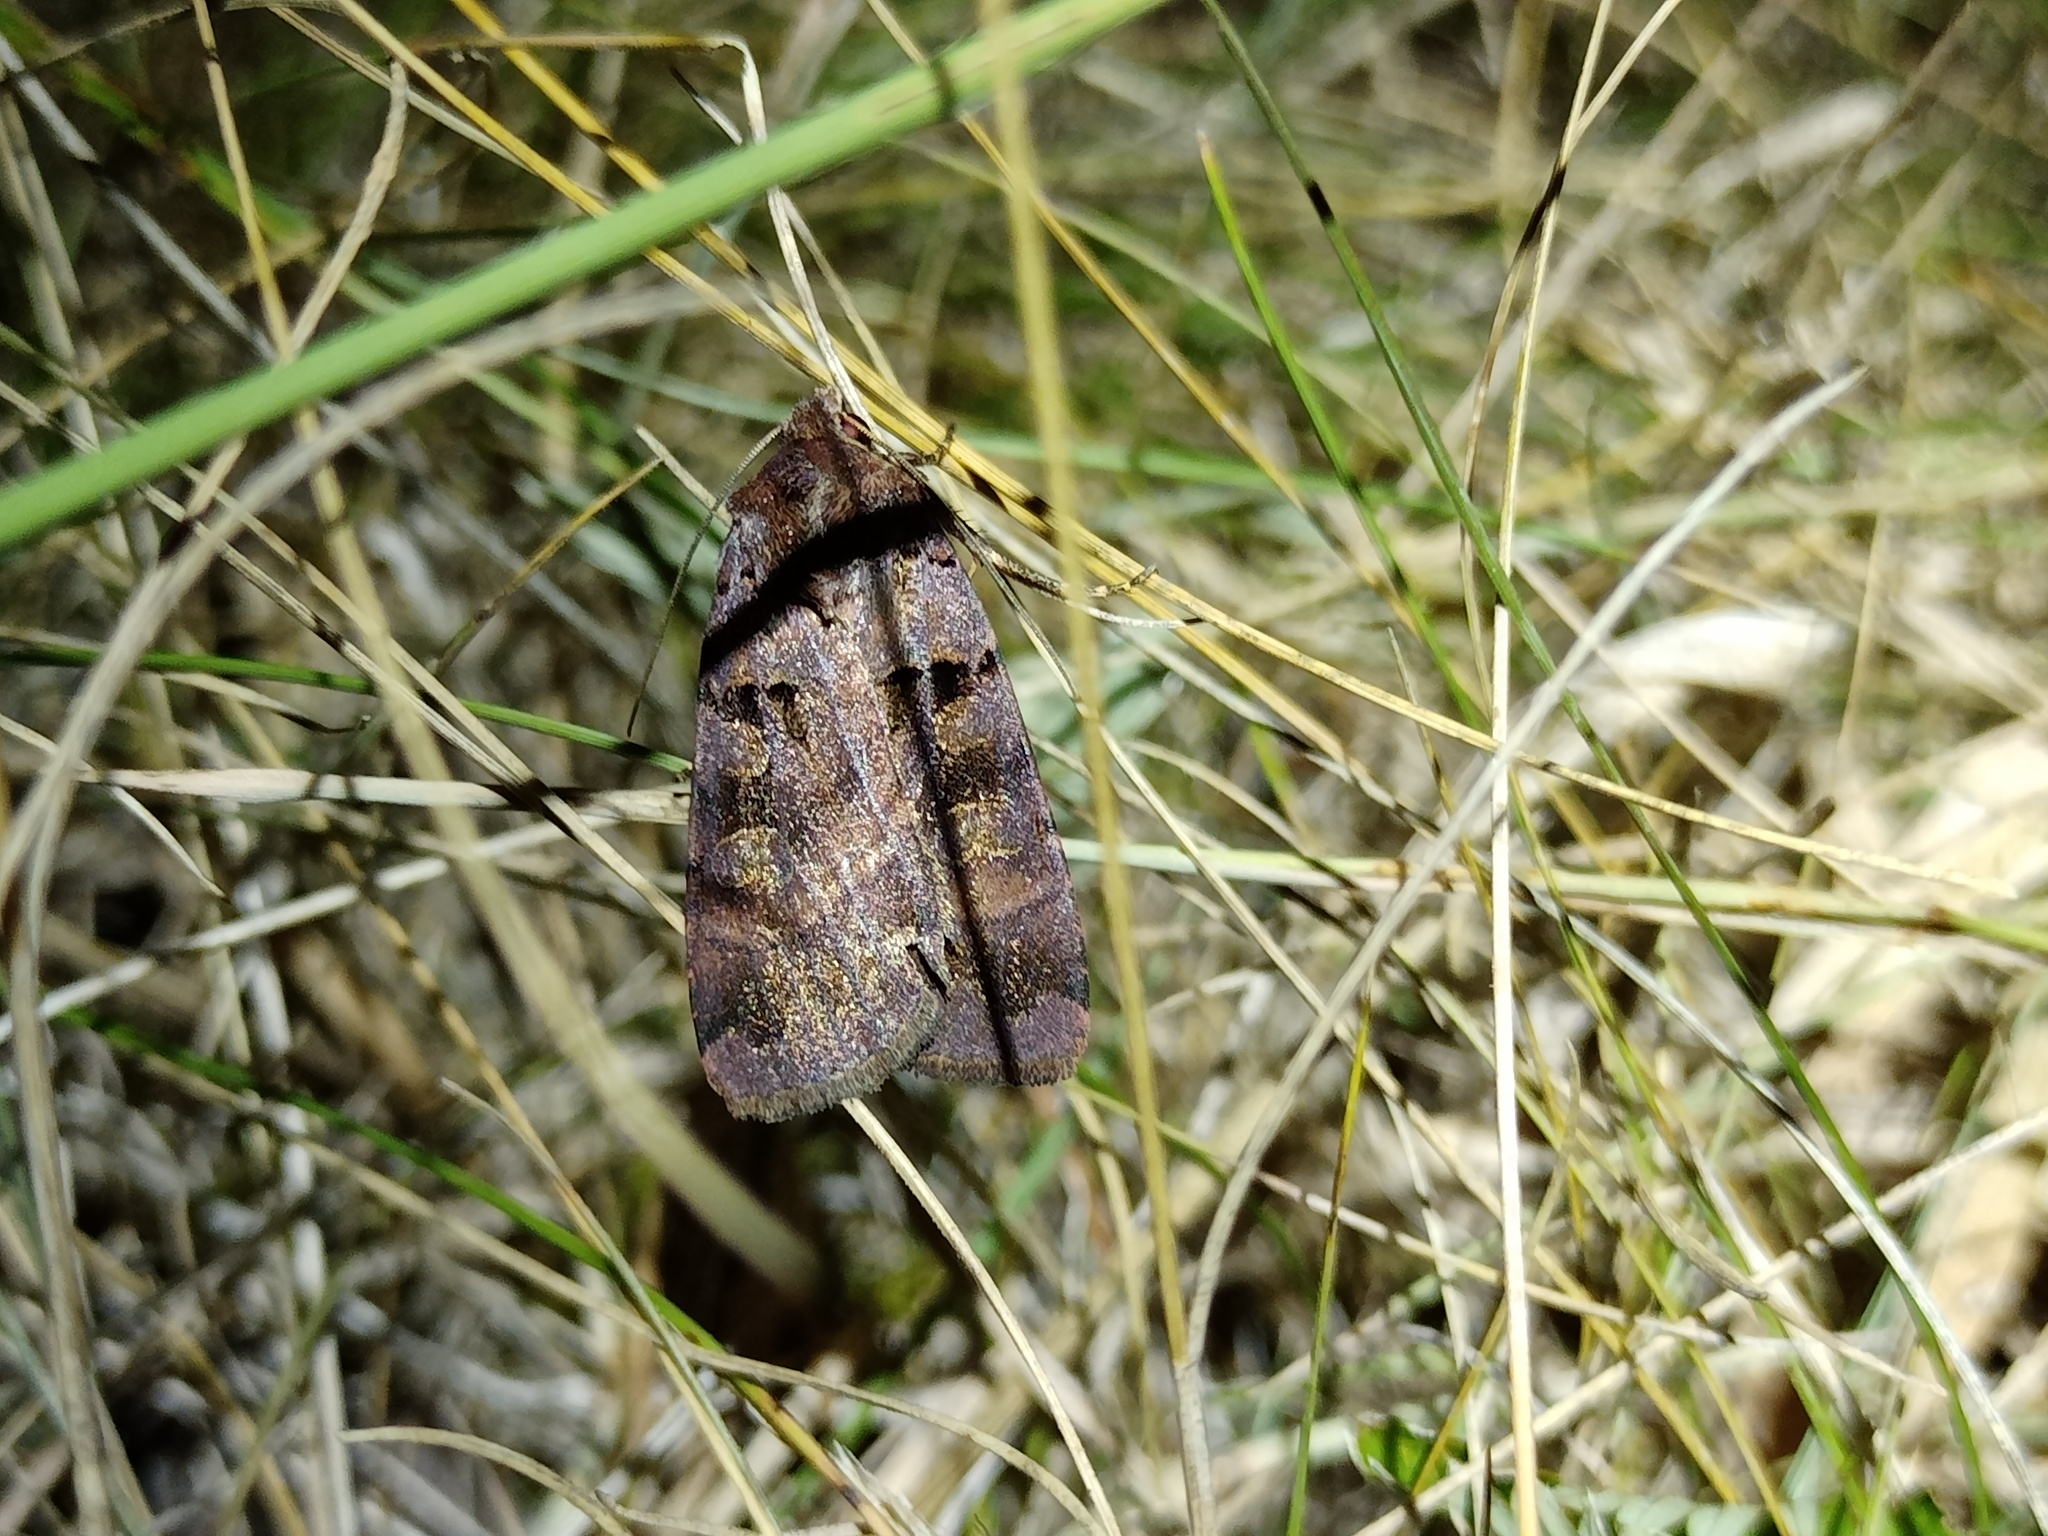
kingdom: Animalia
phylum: Arthropoda
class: Insecta
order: Lepidoptera
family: Noctuidae
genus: Xestia
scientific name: Xestia stigmatica
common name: Square-spotted clay
